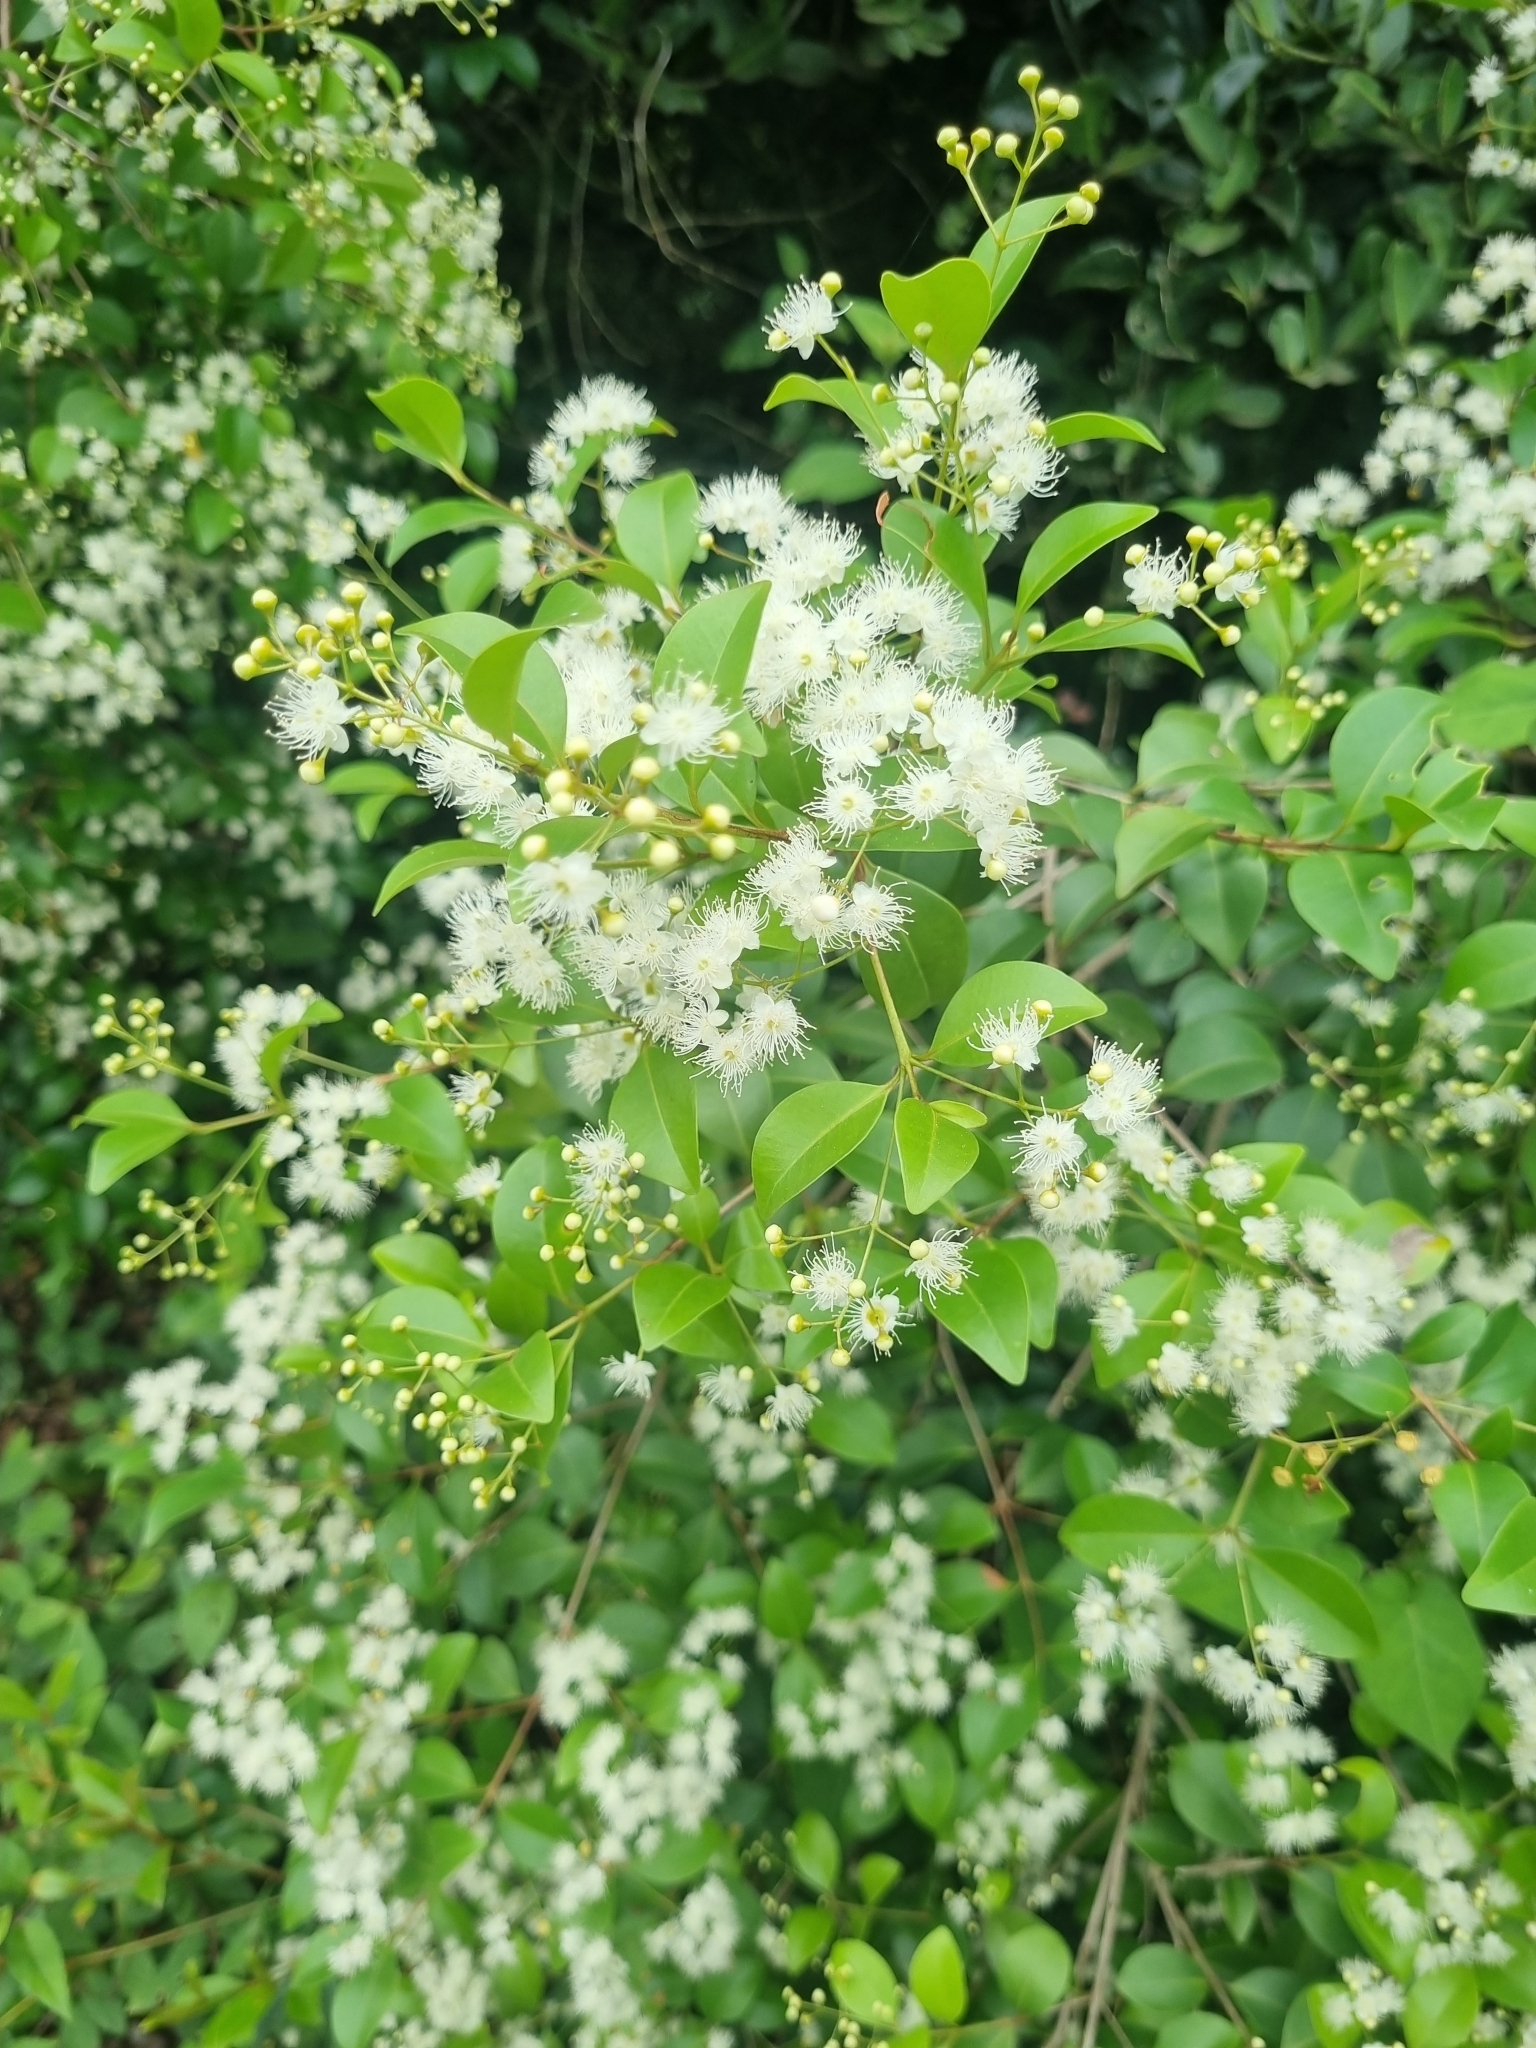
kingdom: Plantae
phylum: Tracheophyta
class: Magnoliopsida
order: Myrtales
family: Myrtaceae
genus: Eugenia
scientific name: Eugenia uniflora
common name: Surinam cherry
